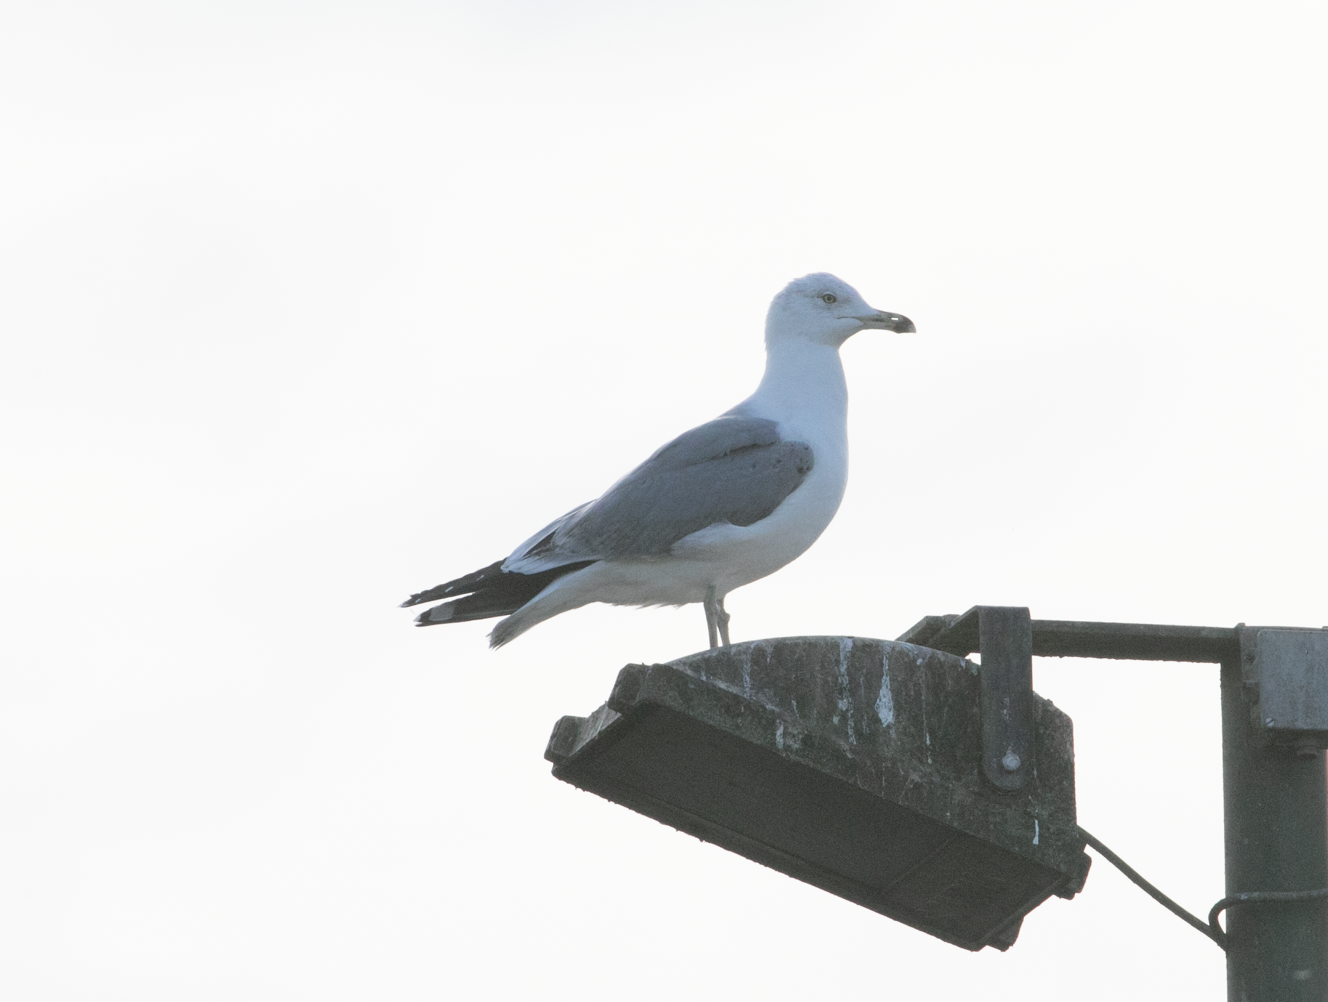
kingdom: Animalia
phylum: Chordata
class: Aves
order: Charadriiformes
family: Laridae
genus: Larus
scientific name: Larus michahellis
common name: Yellow-legged gull
